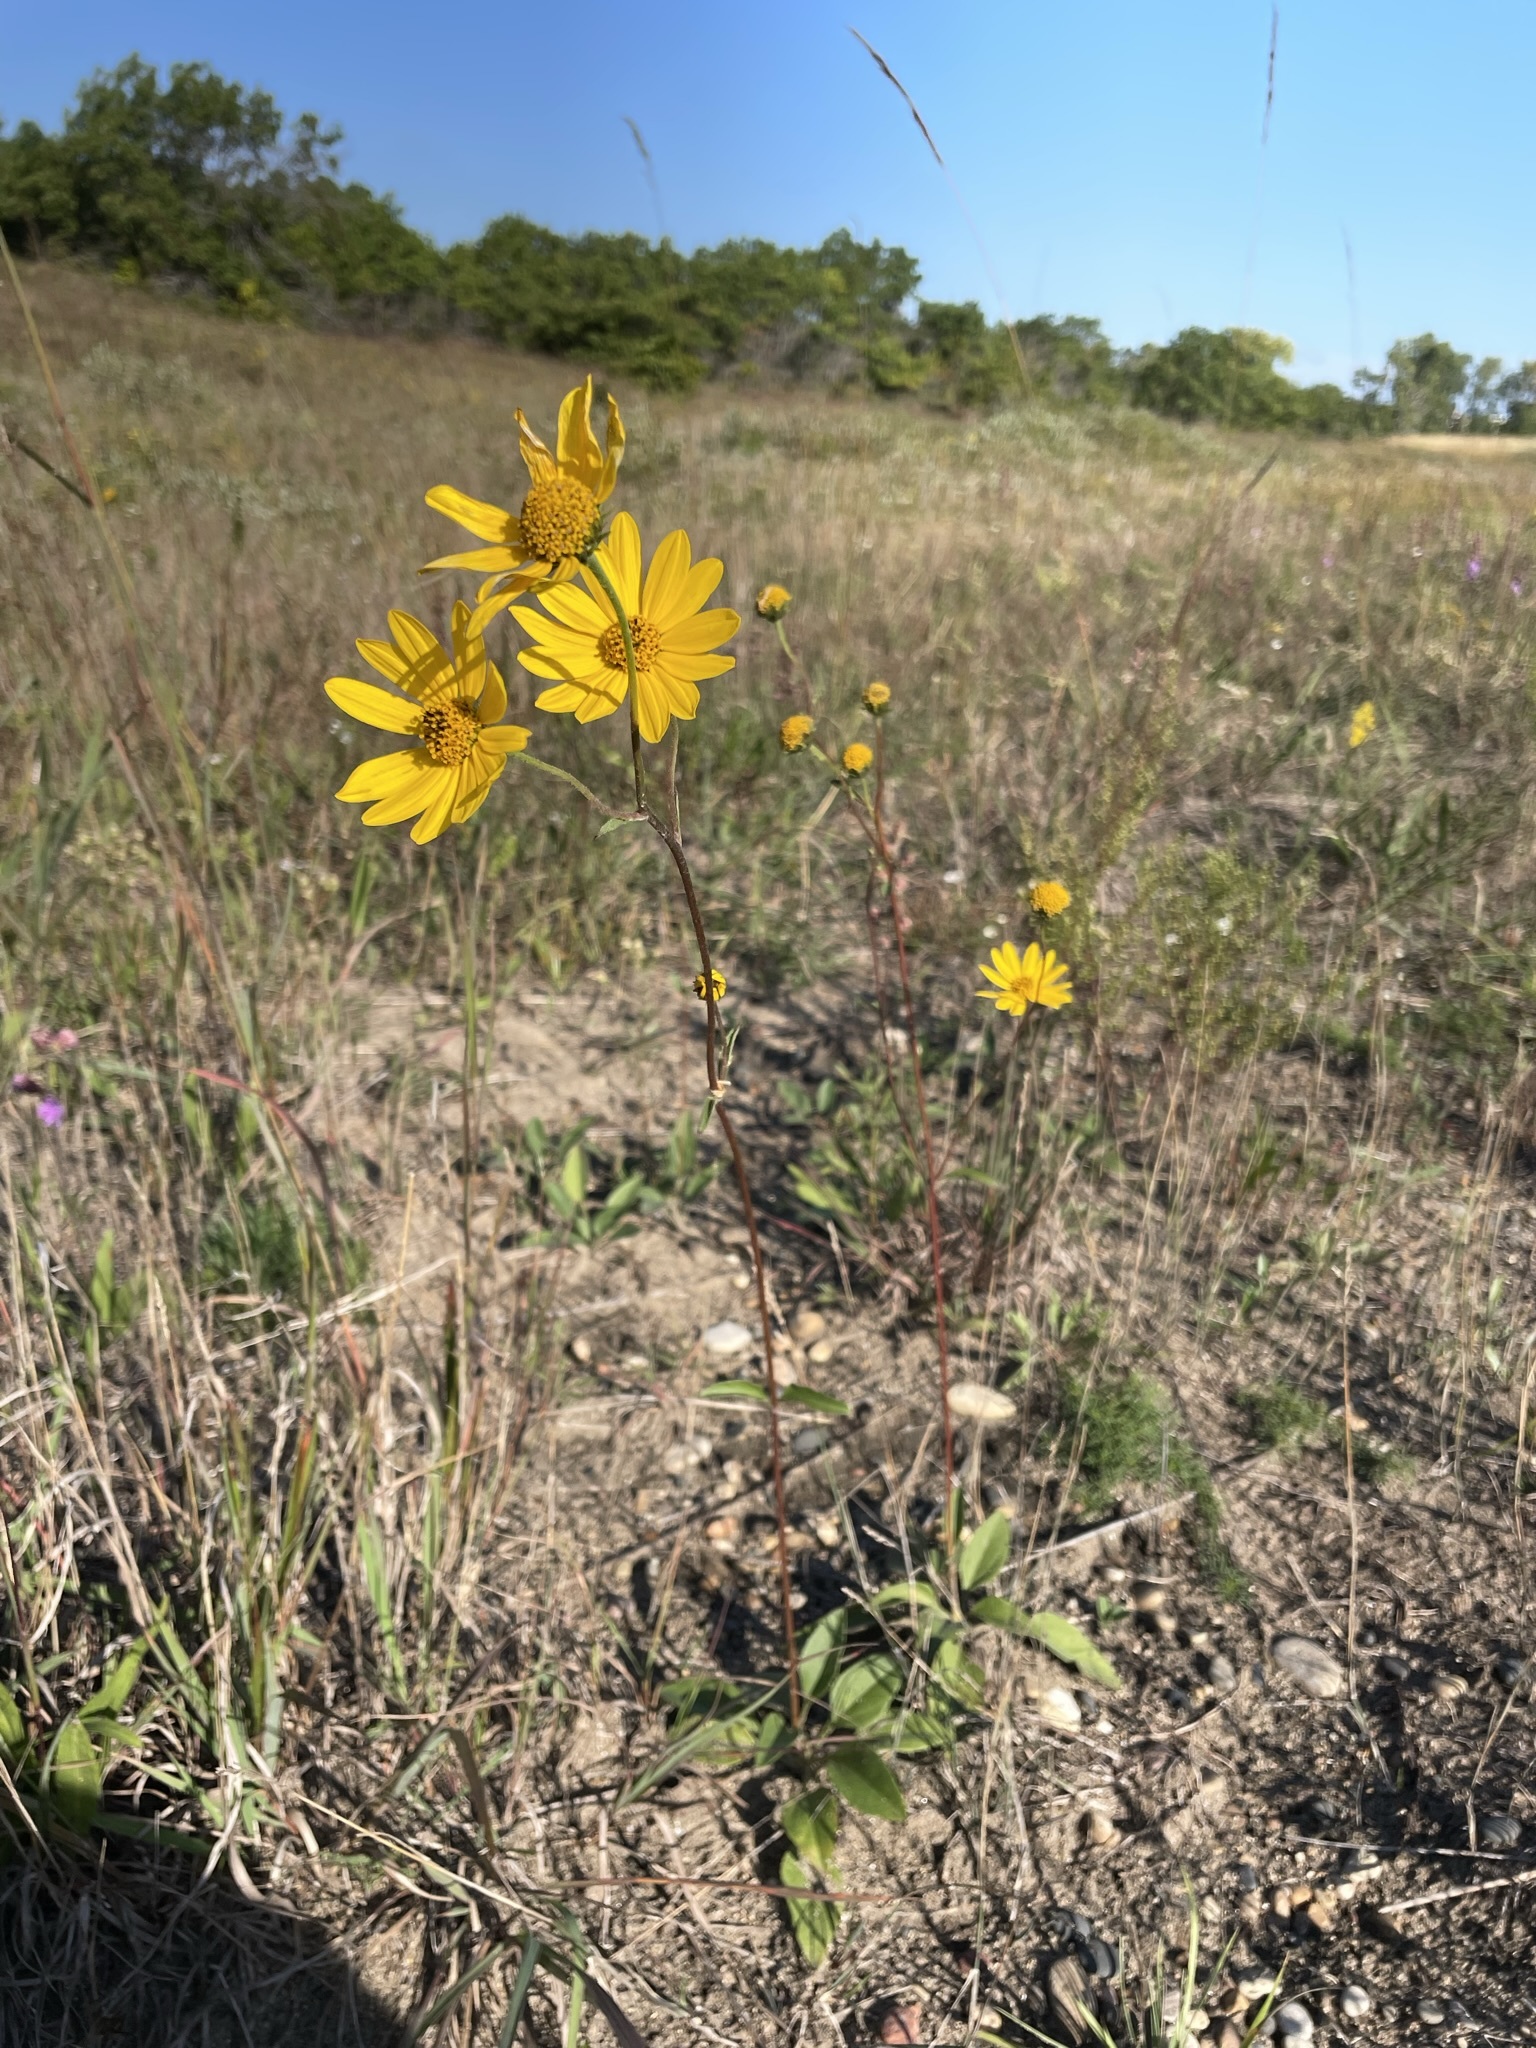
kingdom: Plantae
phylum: Tracheophyta
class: Magnoliopsida
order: Asterales
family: Asteraceae
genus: Helianthus
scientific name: Helianthus occidentalis
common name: Western sunflower
